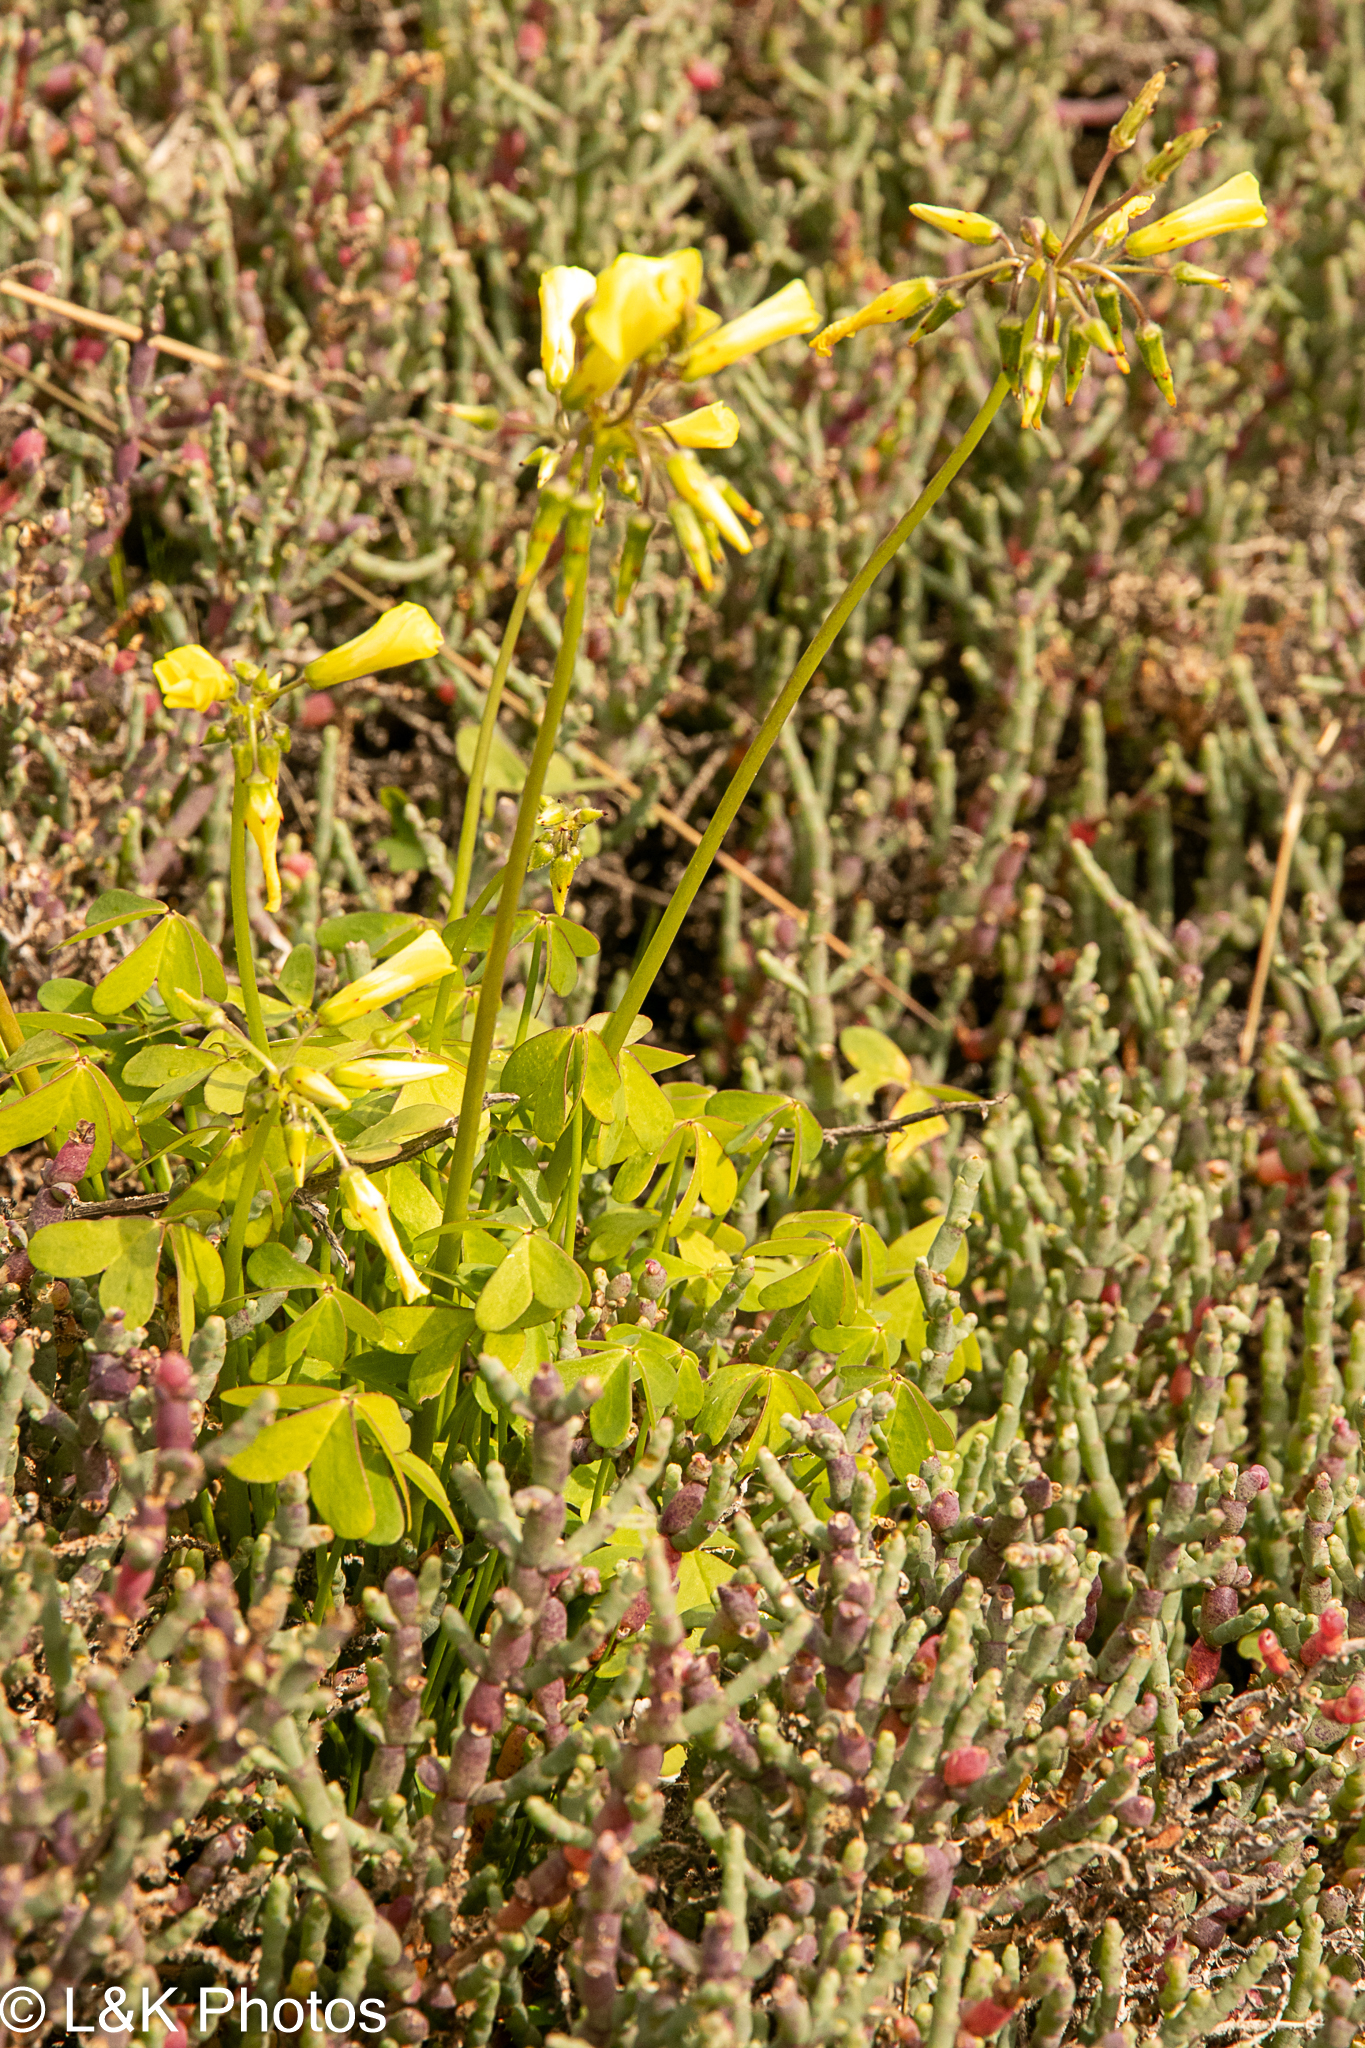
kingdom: Plantae
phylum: Tracheophyta
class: Magnoliopsida
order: Oxalidales
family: Oxalidaceae
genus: Oxalis
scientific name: Oxalis pes-caprae
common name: Bermuda-buttercup
